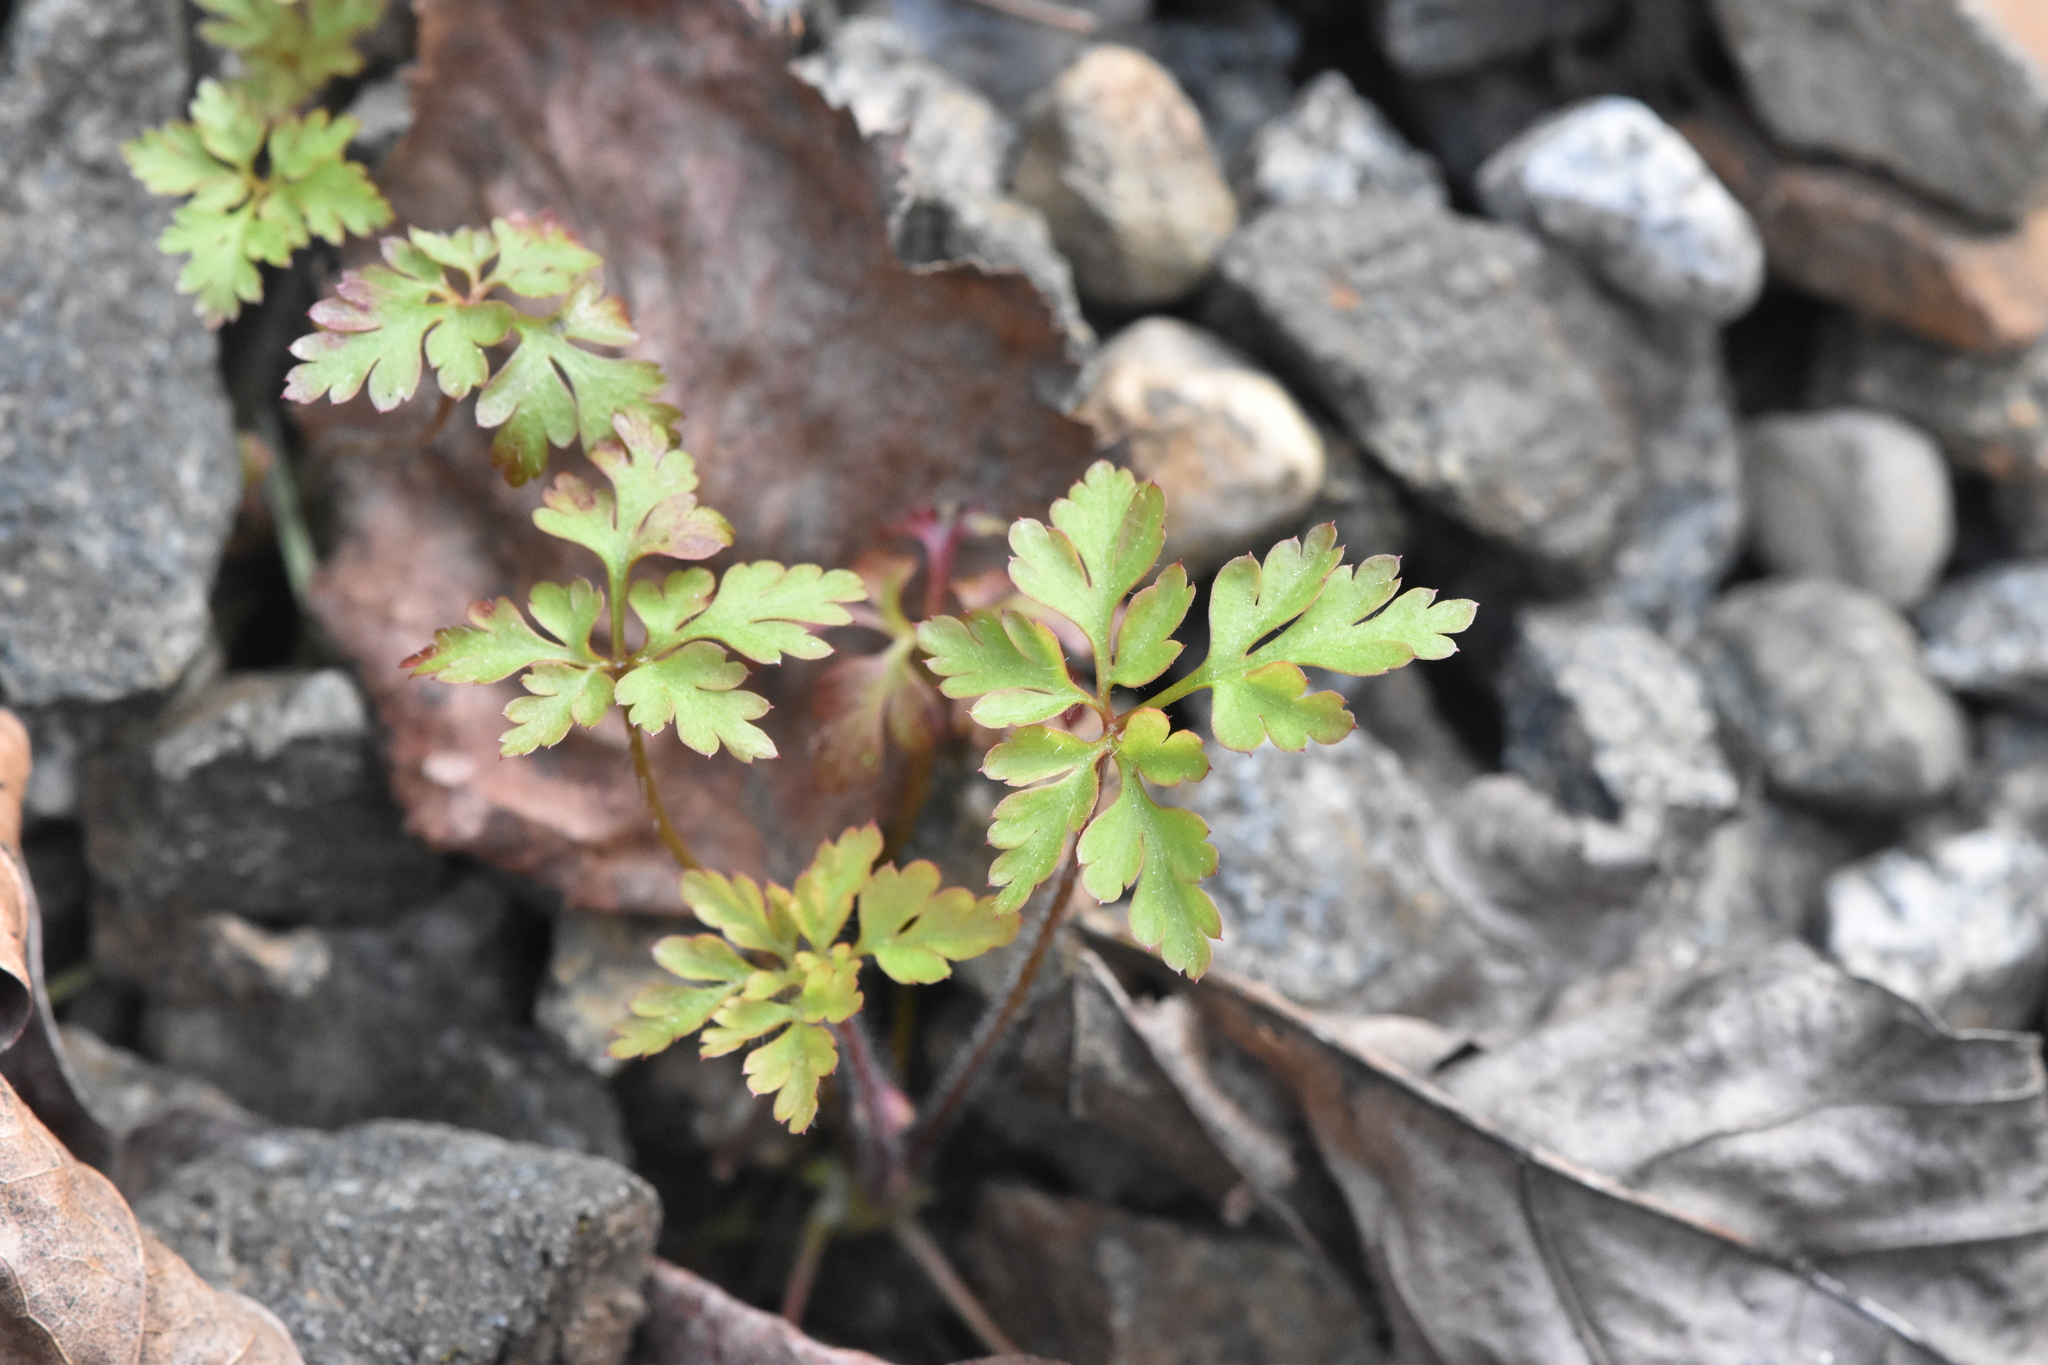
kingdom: Plantae
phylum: Tracheophyta
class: Magnoliopsida
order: Geraniales
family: Geraniaceae
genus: Geranium
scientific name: Geranium robertianum
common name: Herb-robert
